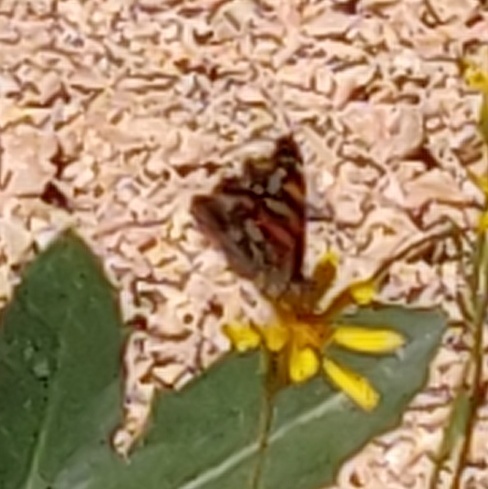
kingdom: Animalia
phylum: Arthropoda
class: Insecta
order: Lepidoptera
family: Nymphalidae
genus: Vanessa
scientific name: Vanessa annabella
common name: West coast lady
